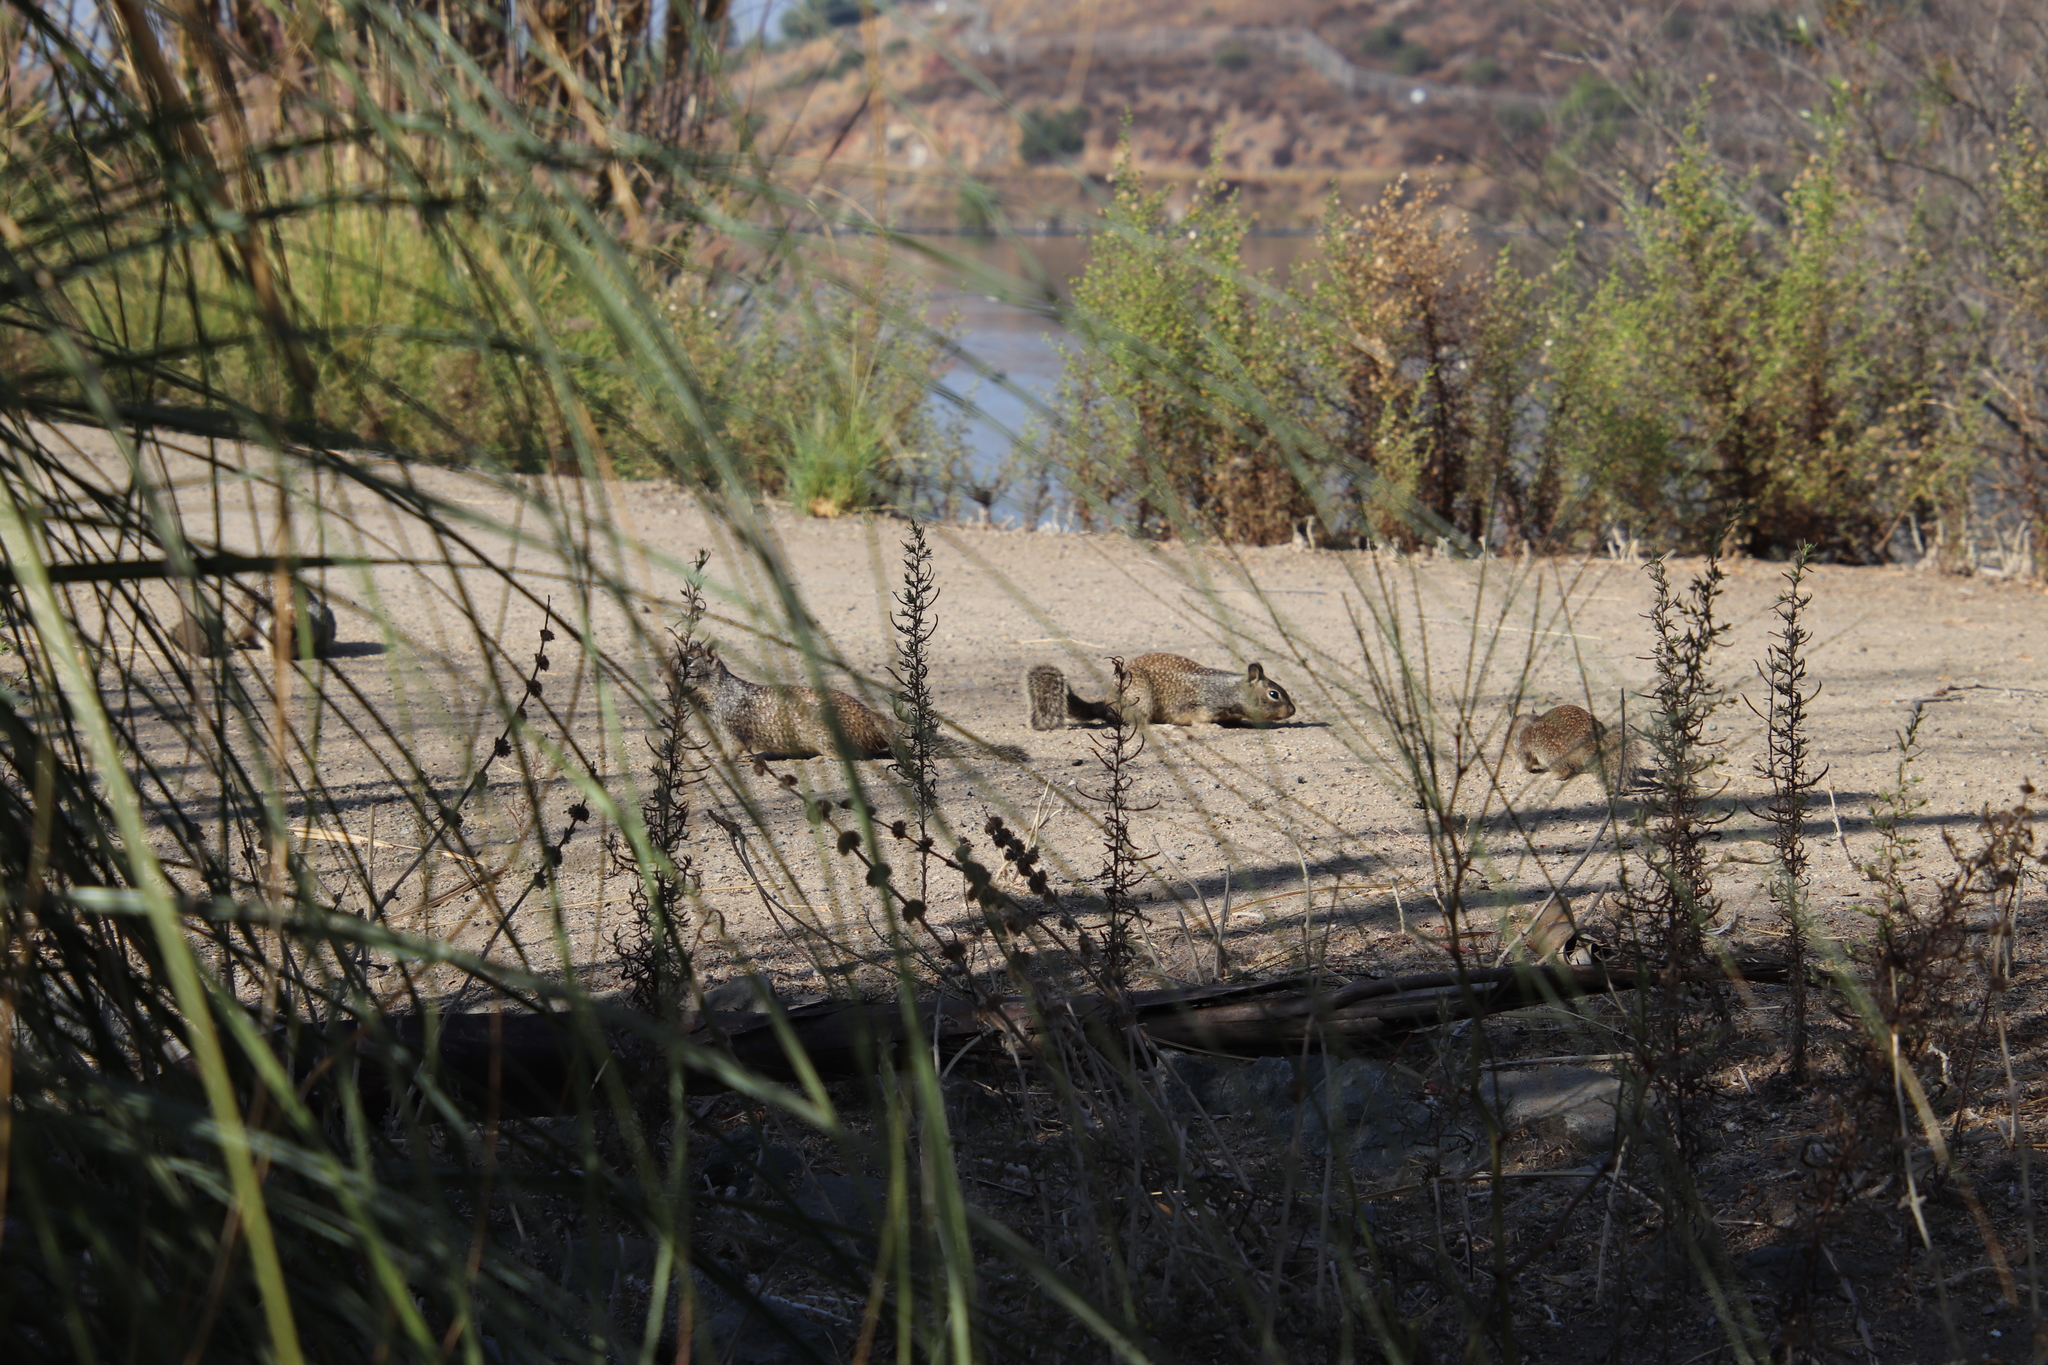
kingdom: Animalia
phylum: Chordata
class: Mammalia
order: Rodentia
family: Sciuridae
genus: Otospermophilus
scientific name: Otospermophilus beecheyi
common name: California ground squirrel
